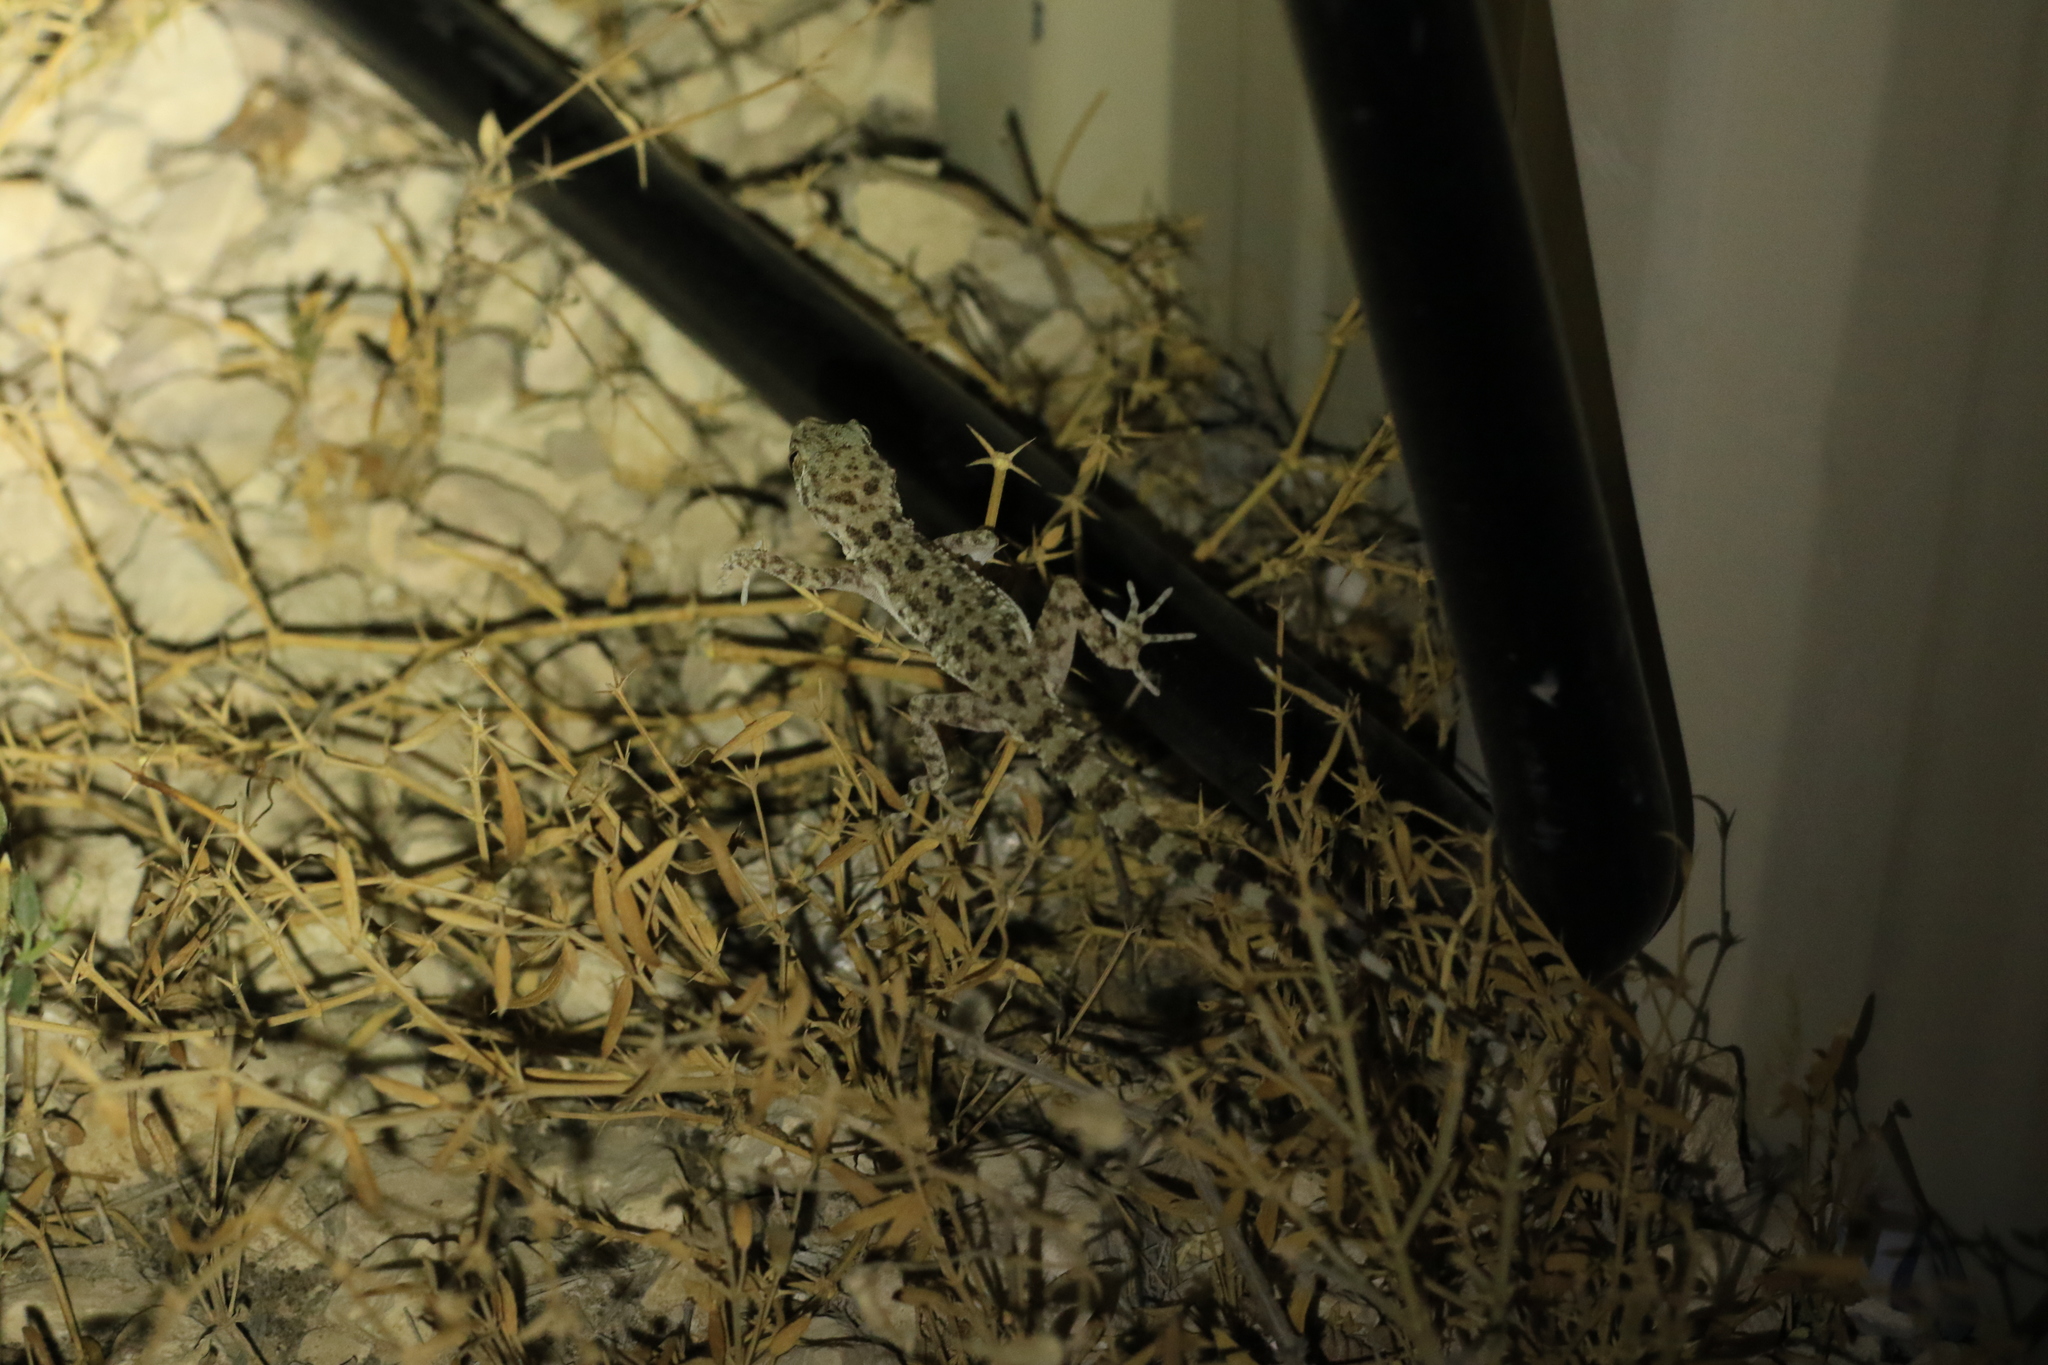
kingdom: Animalia
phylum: Chordata
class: Squamata
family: Gekkonidae
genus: Cyrtopodion
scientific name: Cyrtopodion scabrum
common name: Rough-tailed gecko
